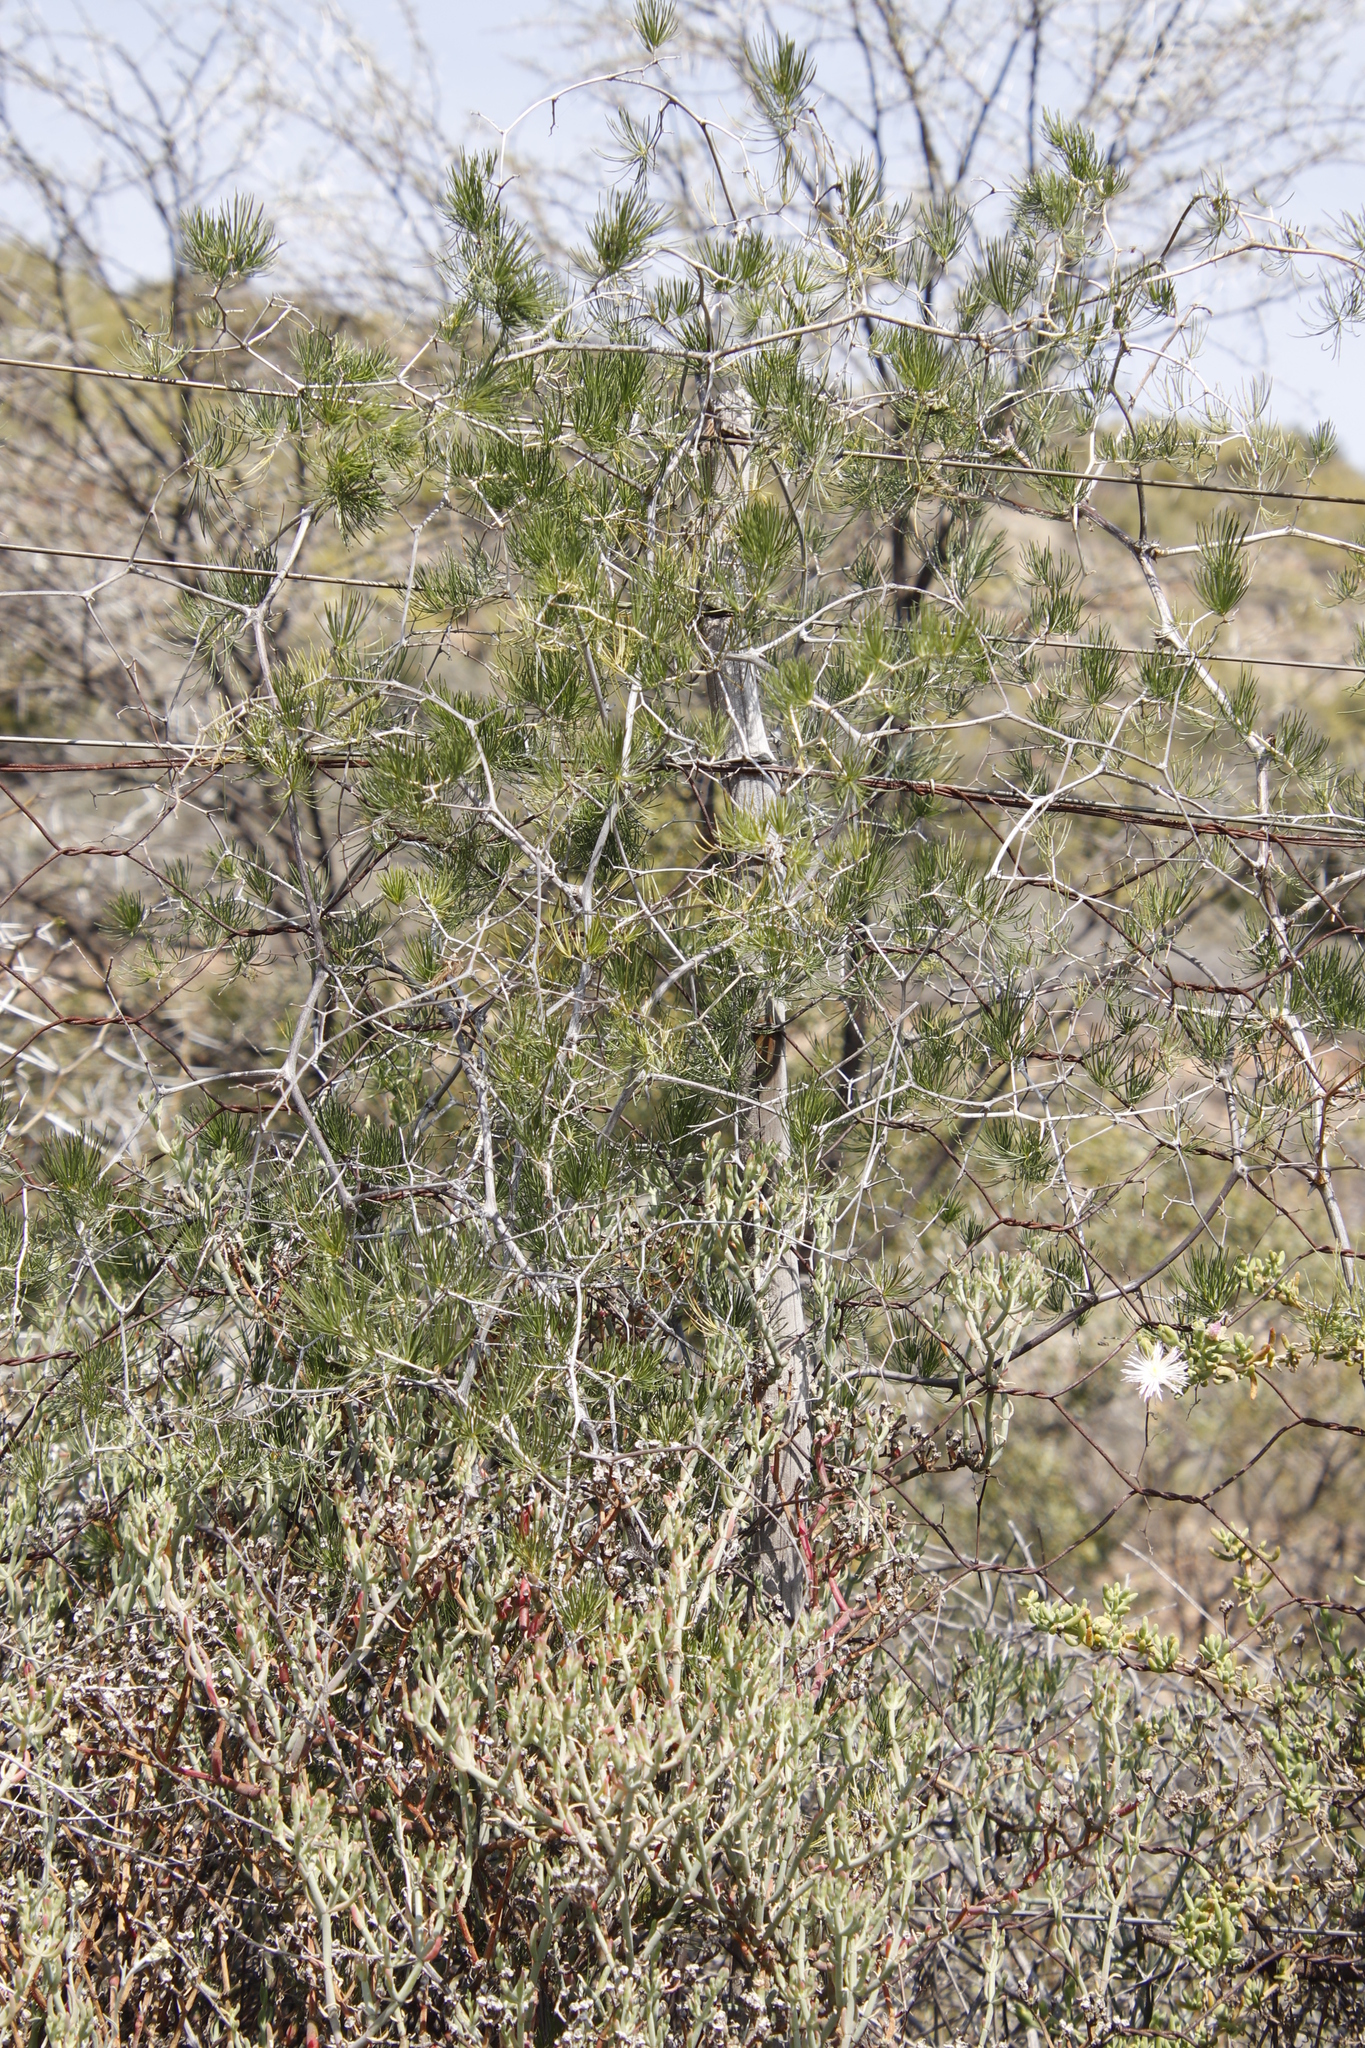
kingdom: Plantae
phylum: Tracheophyta
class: Liliopsida
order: Asparagales
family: Asparagaceae
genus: Asparagus
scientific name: Asparagus retrofractus
